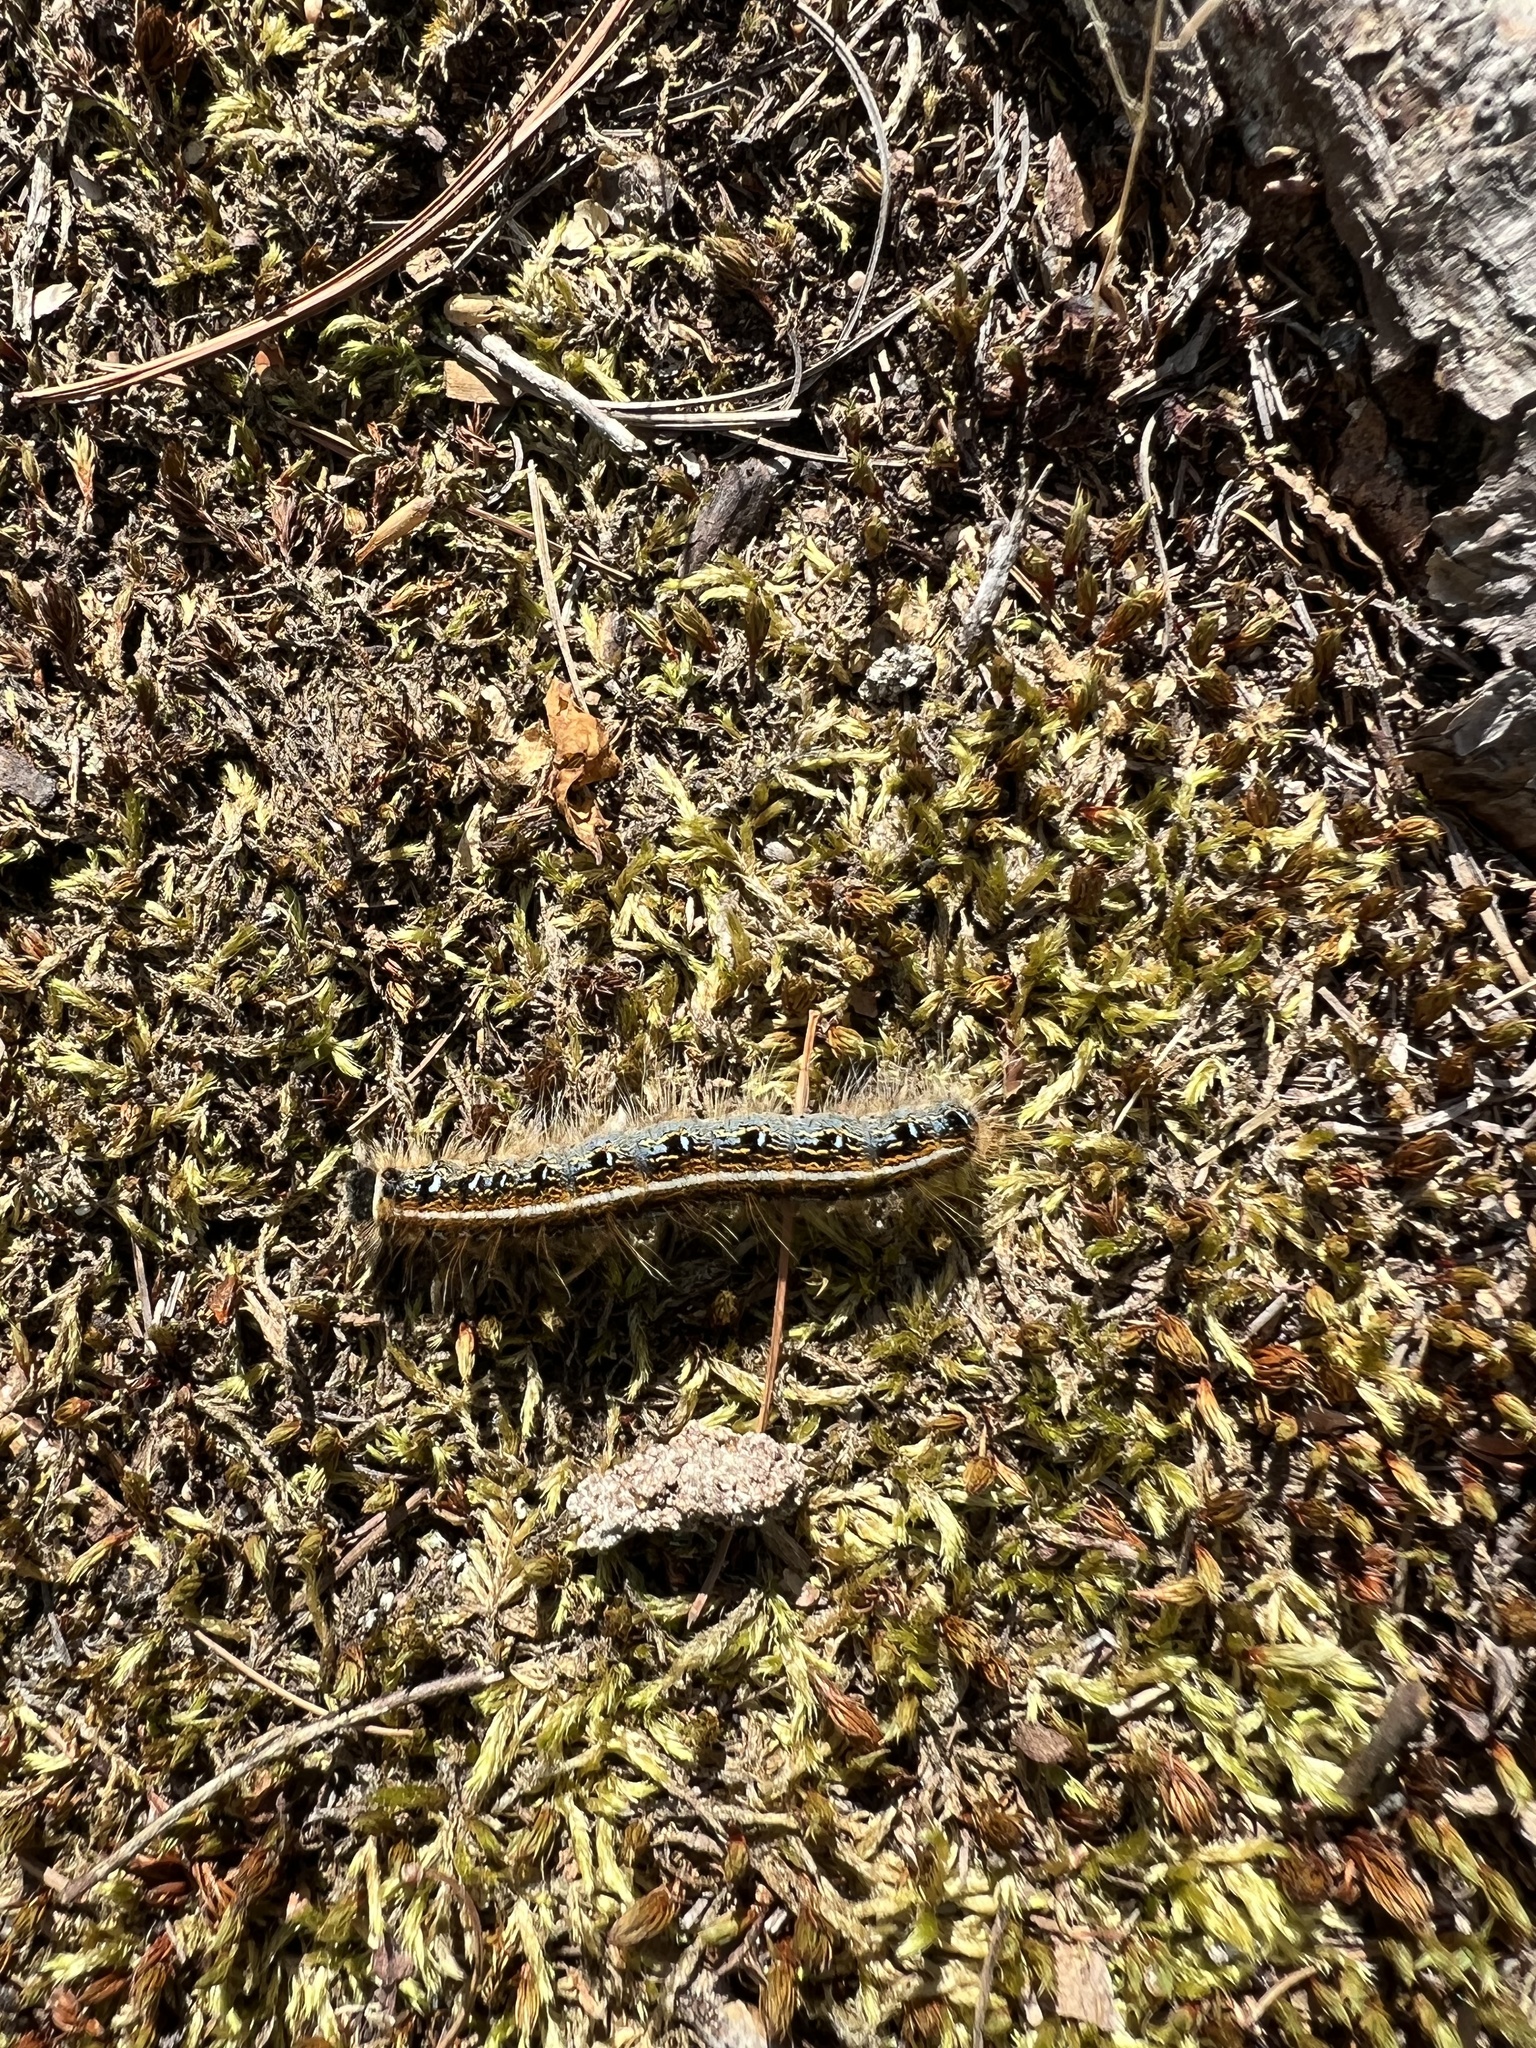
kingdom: Animalia
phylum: Arthropoda
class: Insecta
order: Lepidoptera
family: Lasiocampidae
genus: Malacosoma
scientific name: Malacosoma americana
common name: Eastern tent caterpillar moth
